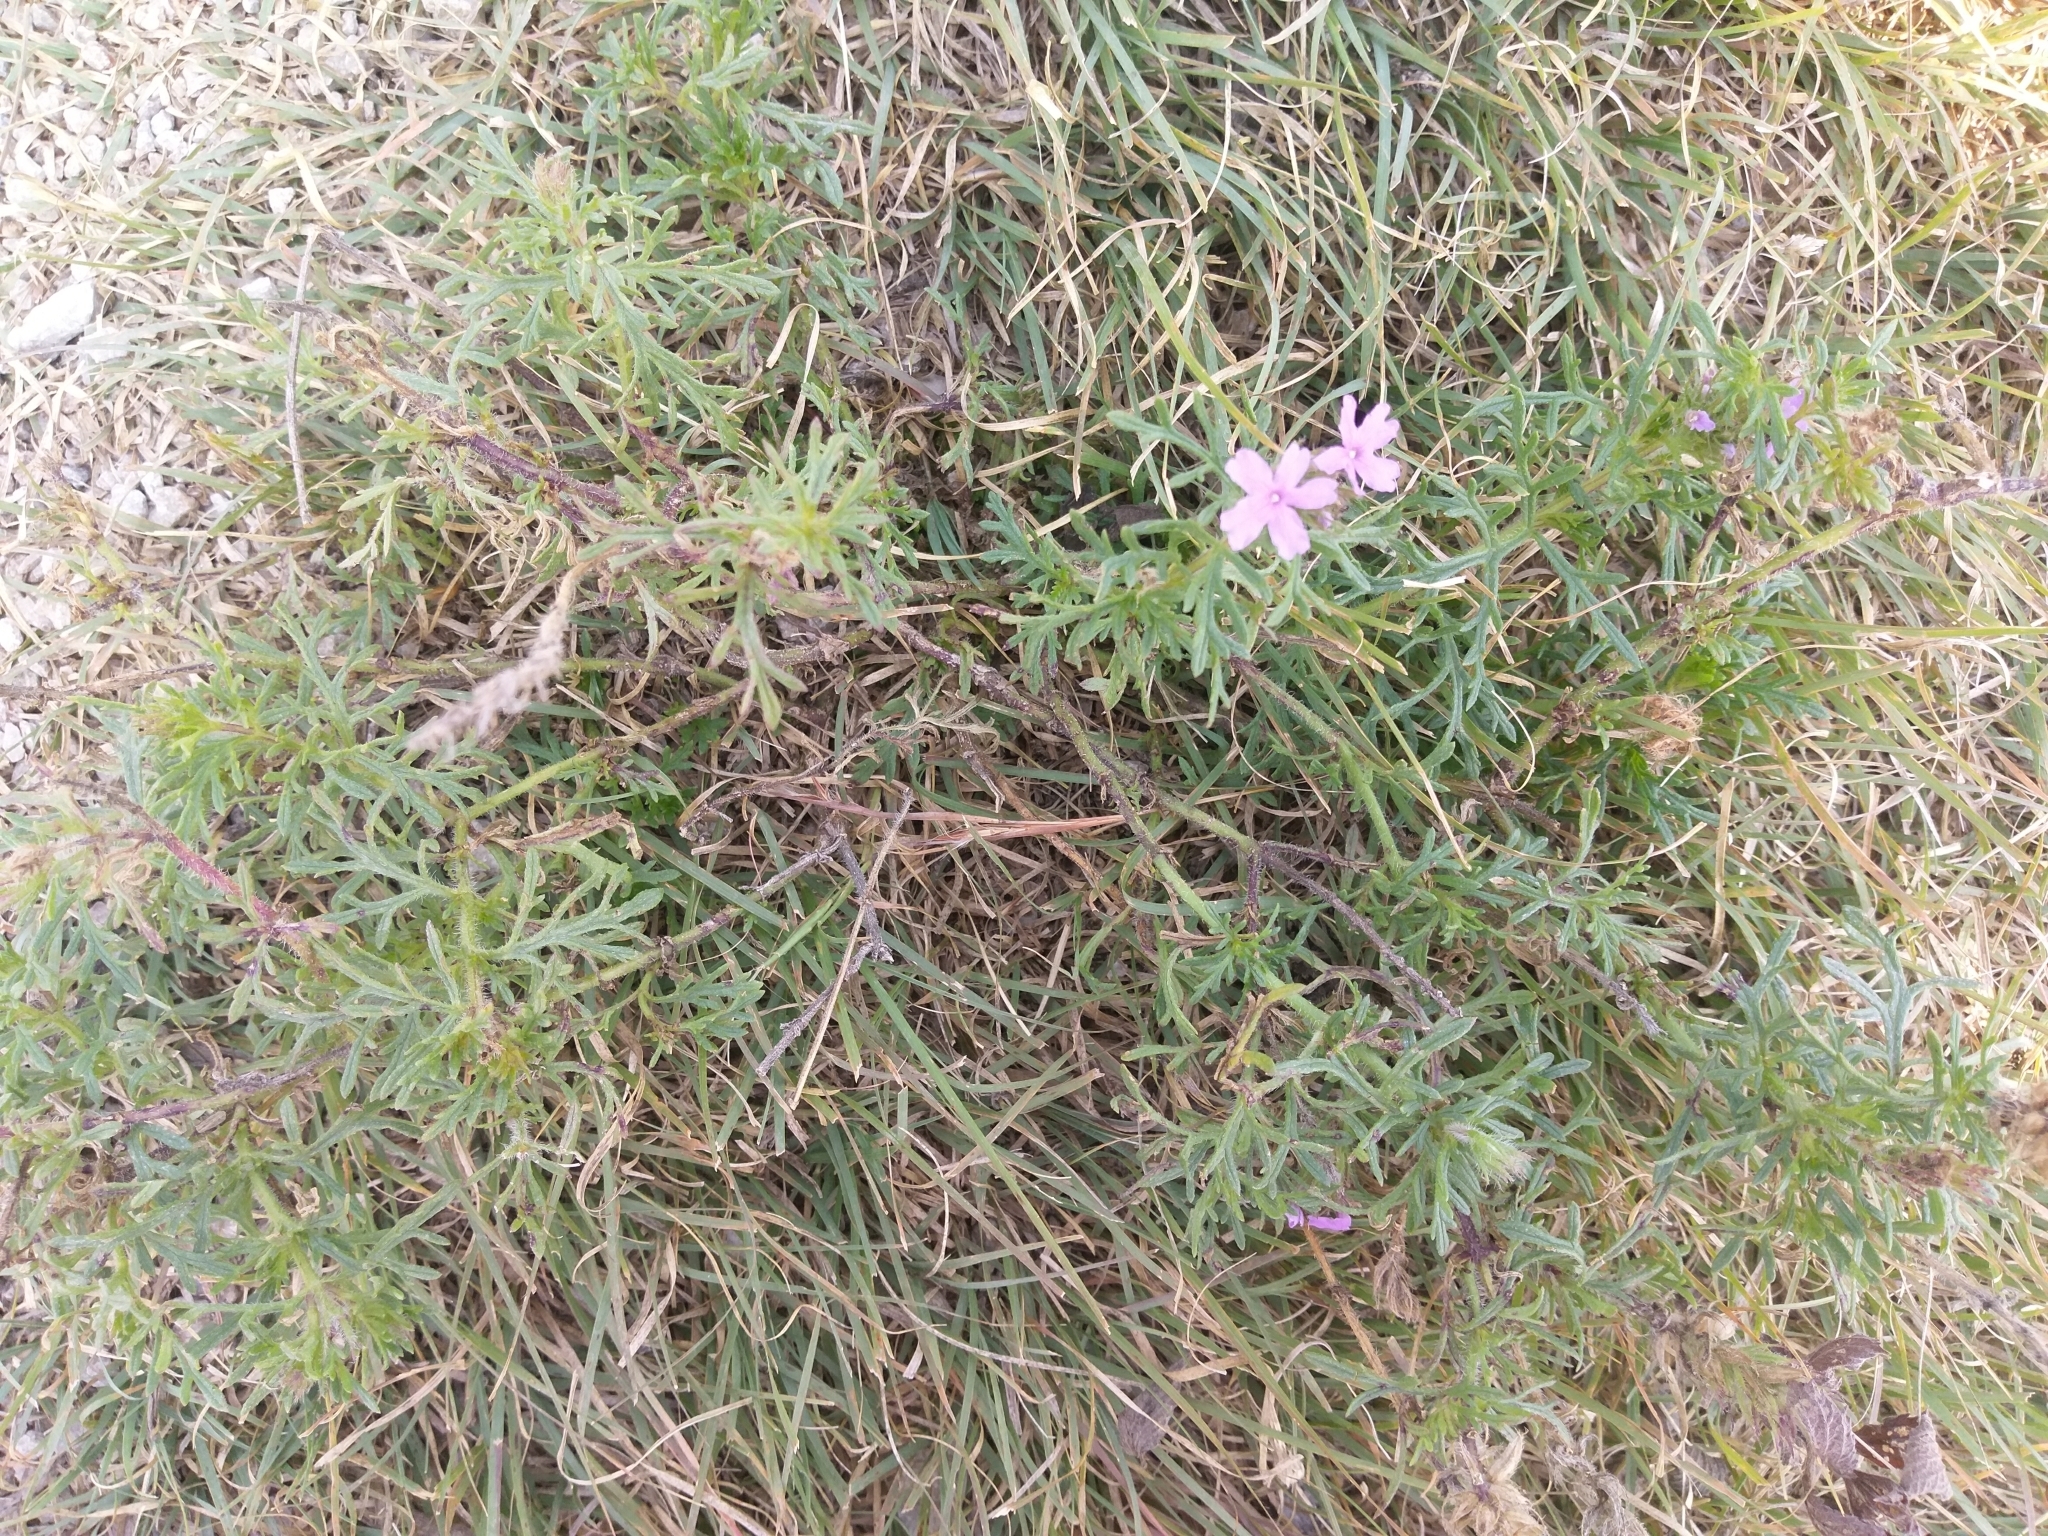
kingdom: Plantae
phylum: Tracheophyta
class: Magnoliopsida
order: Lamiales
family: Verbenaceae
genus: Verbena
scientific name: Verbena bipinnatifida
